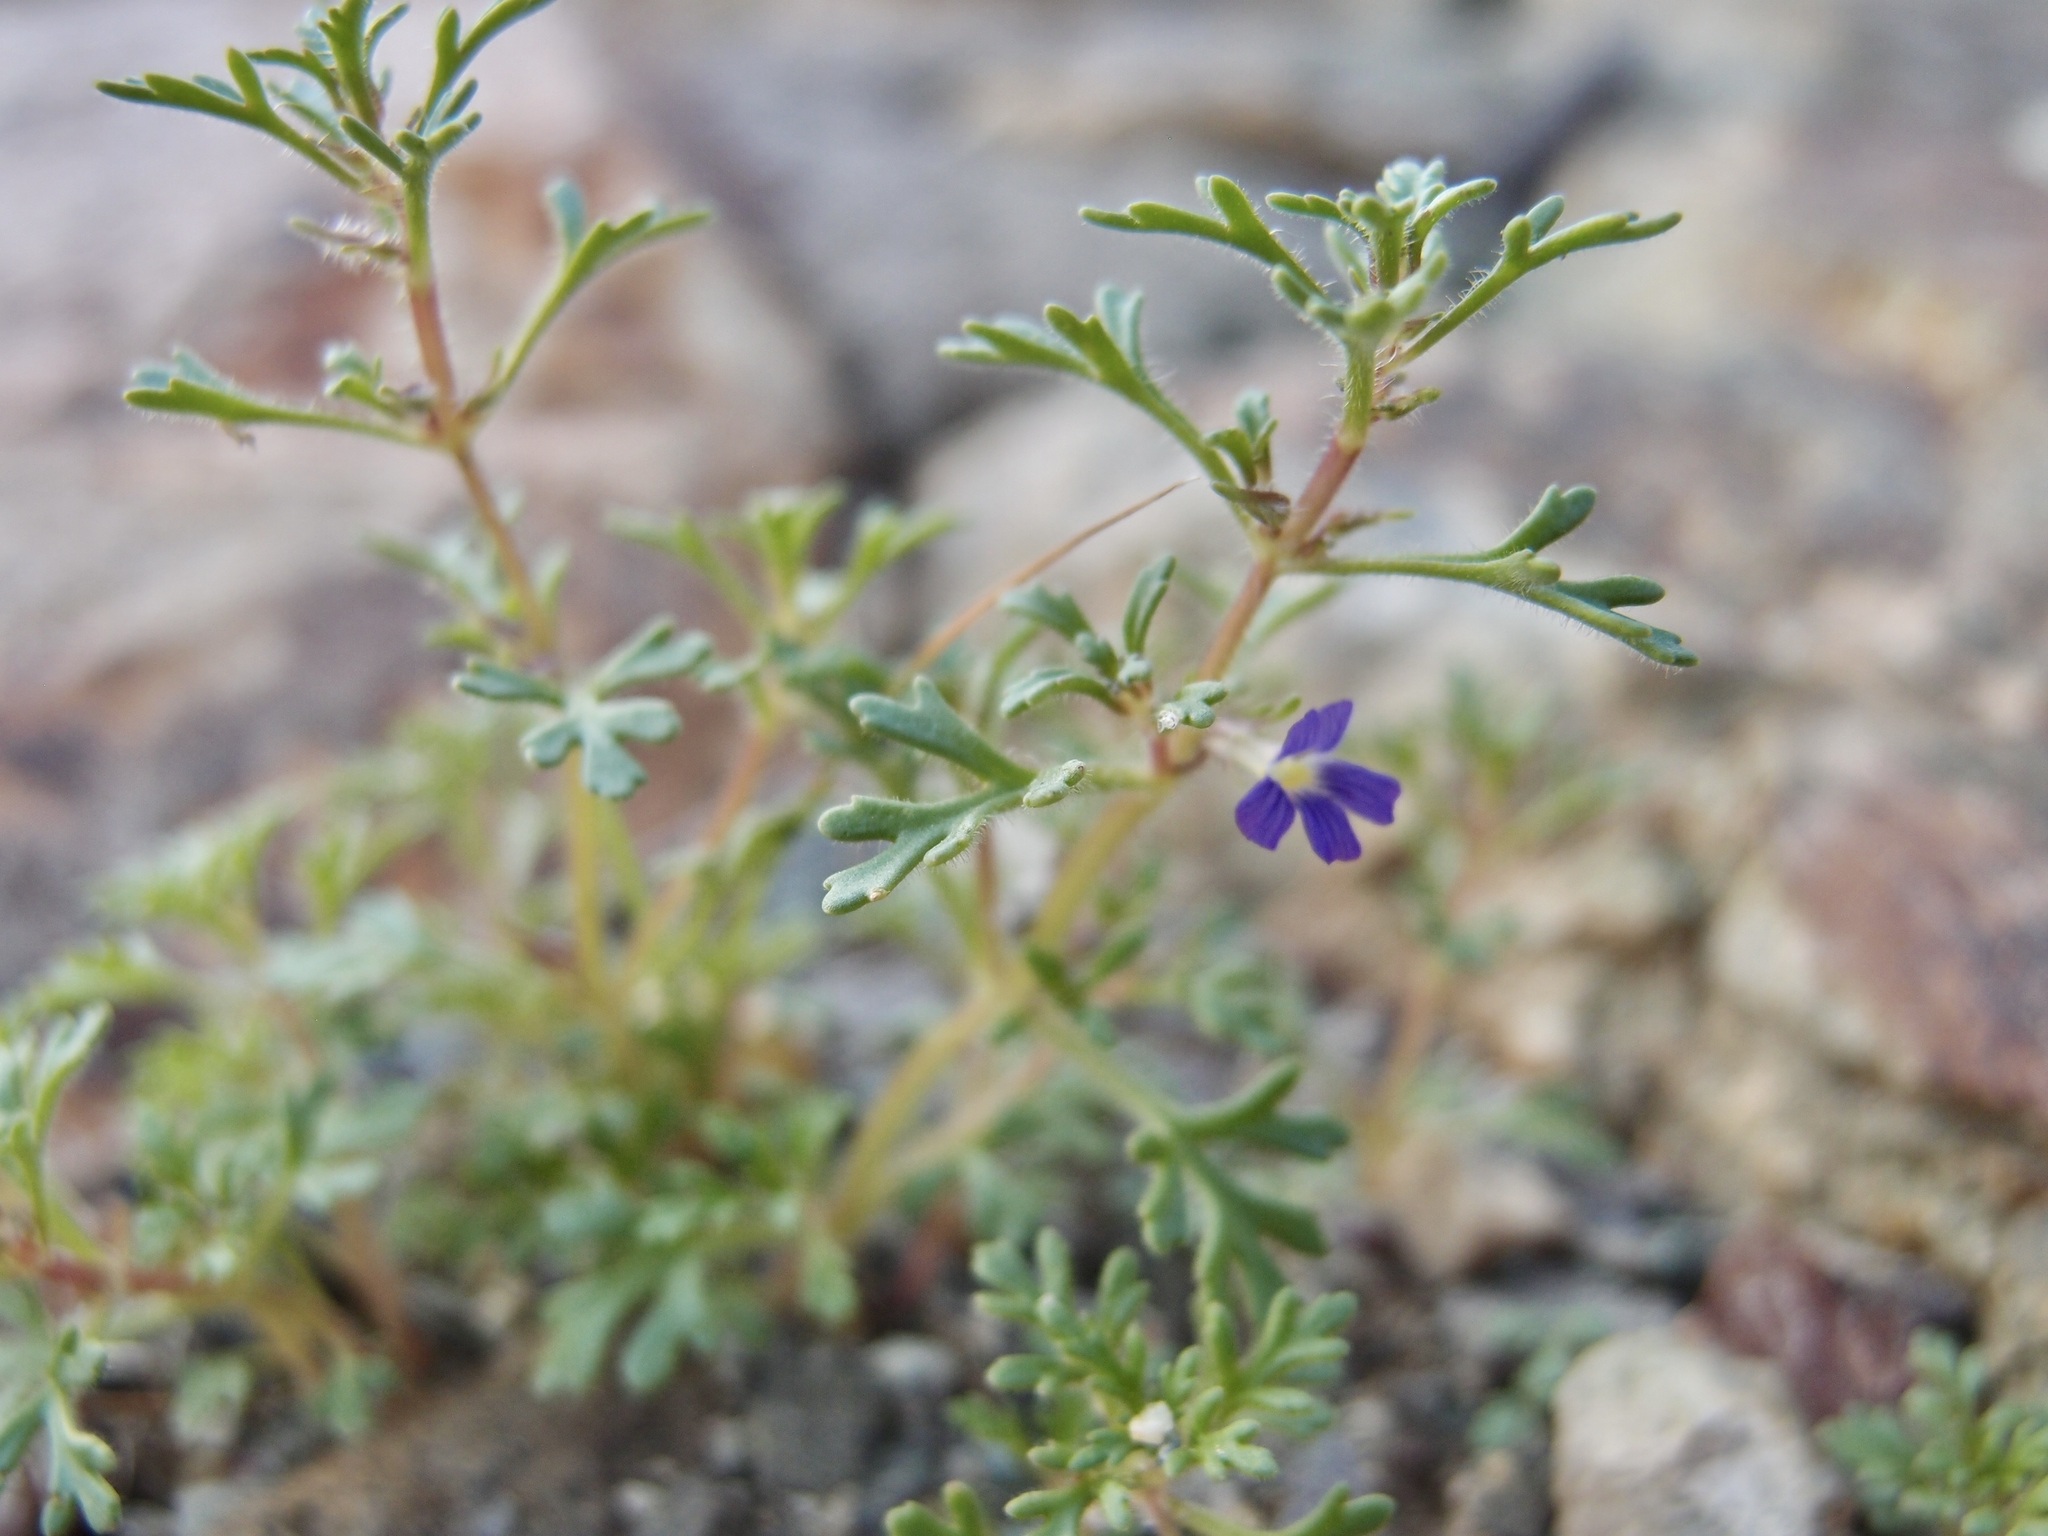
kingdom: Plantae
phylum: Tracheophyta
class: Magnoliopsida
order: Lamiales
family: Plantaginaceae
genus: Schistophragma
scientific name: Schistophragma intermedium
